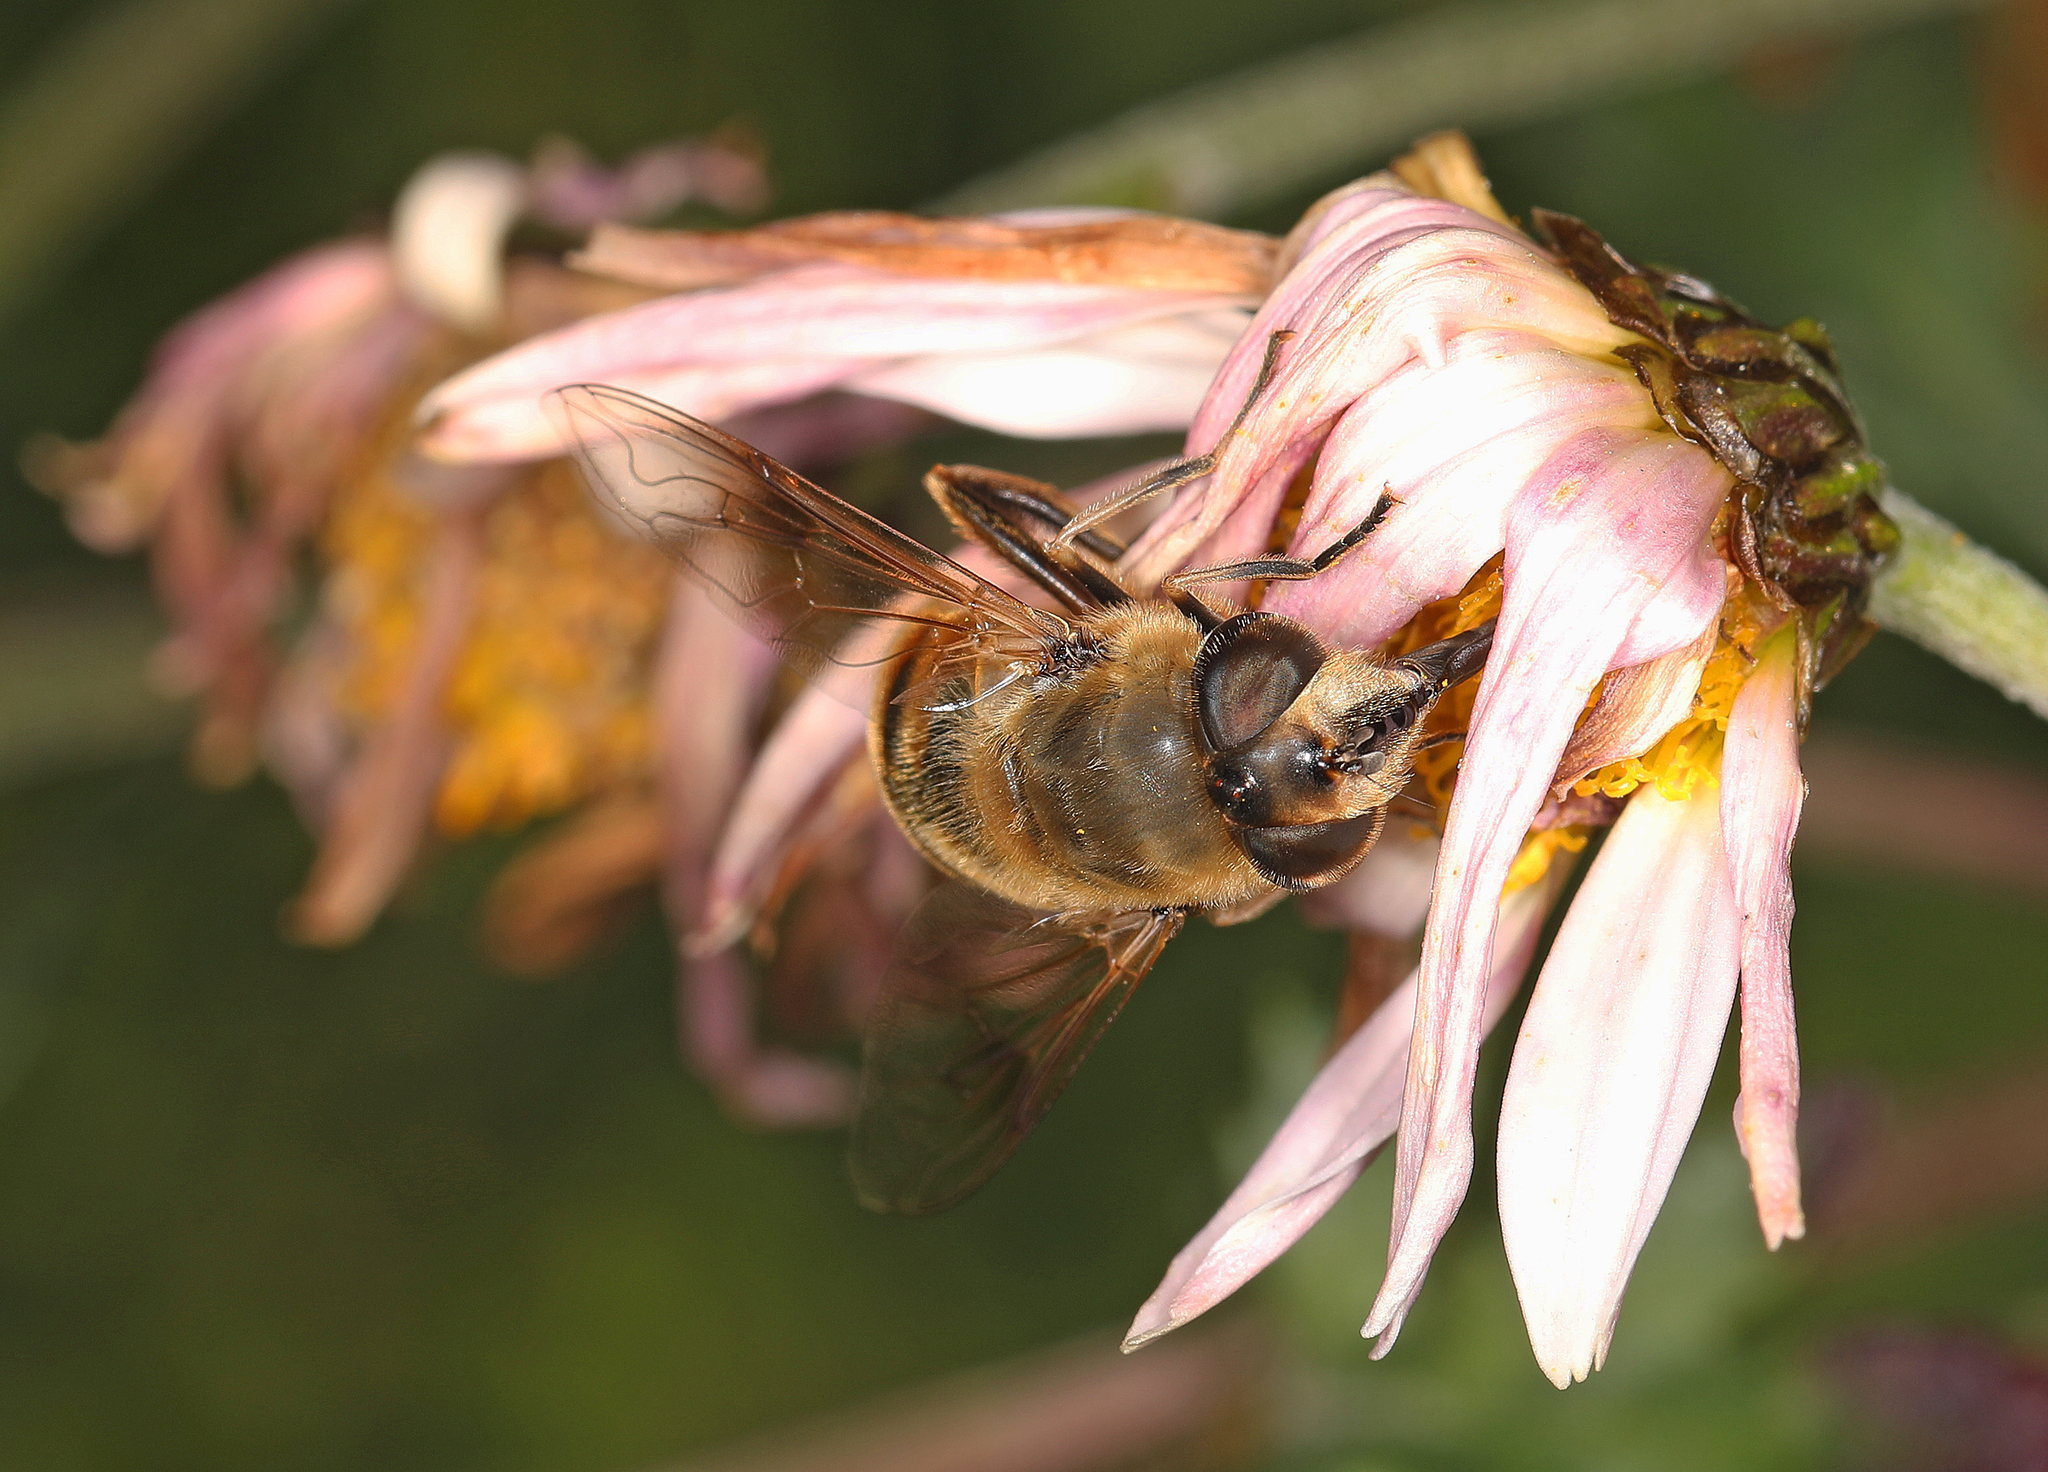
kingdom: Animalia
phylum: Arthropoda
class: Insecta
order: Diptera
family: Syrphidae
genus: Eristalis
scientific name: Eristalis tenax
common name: Drone fly
